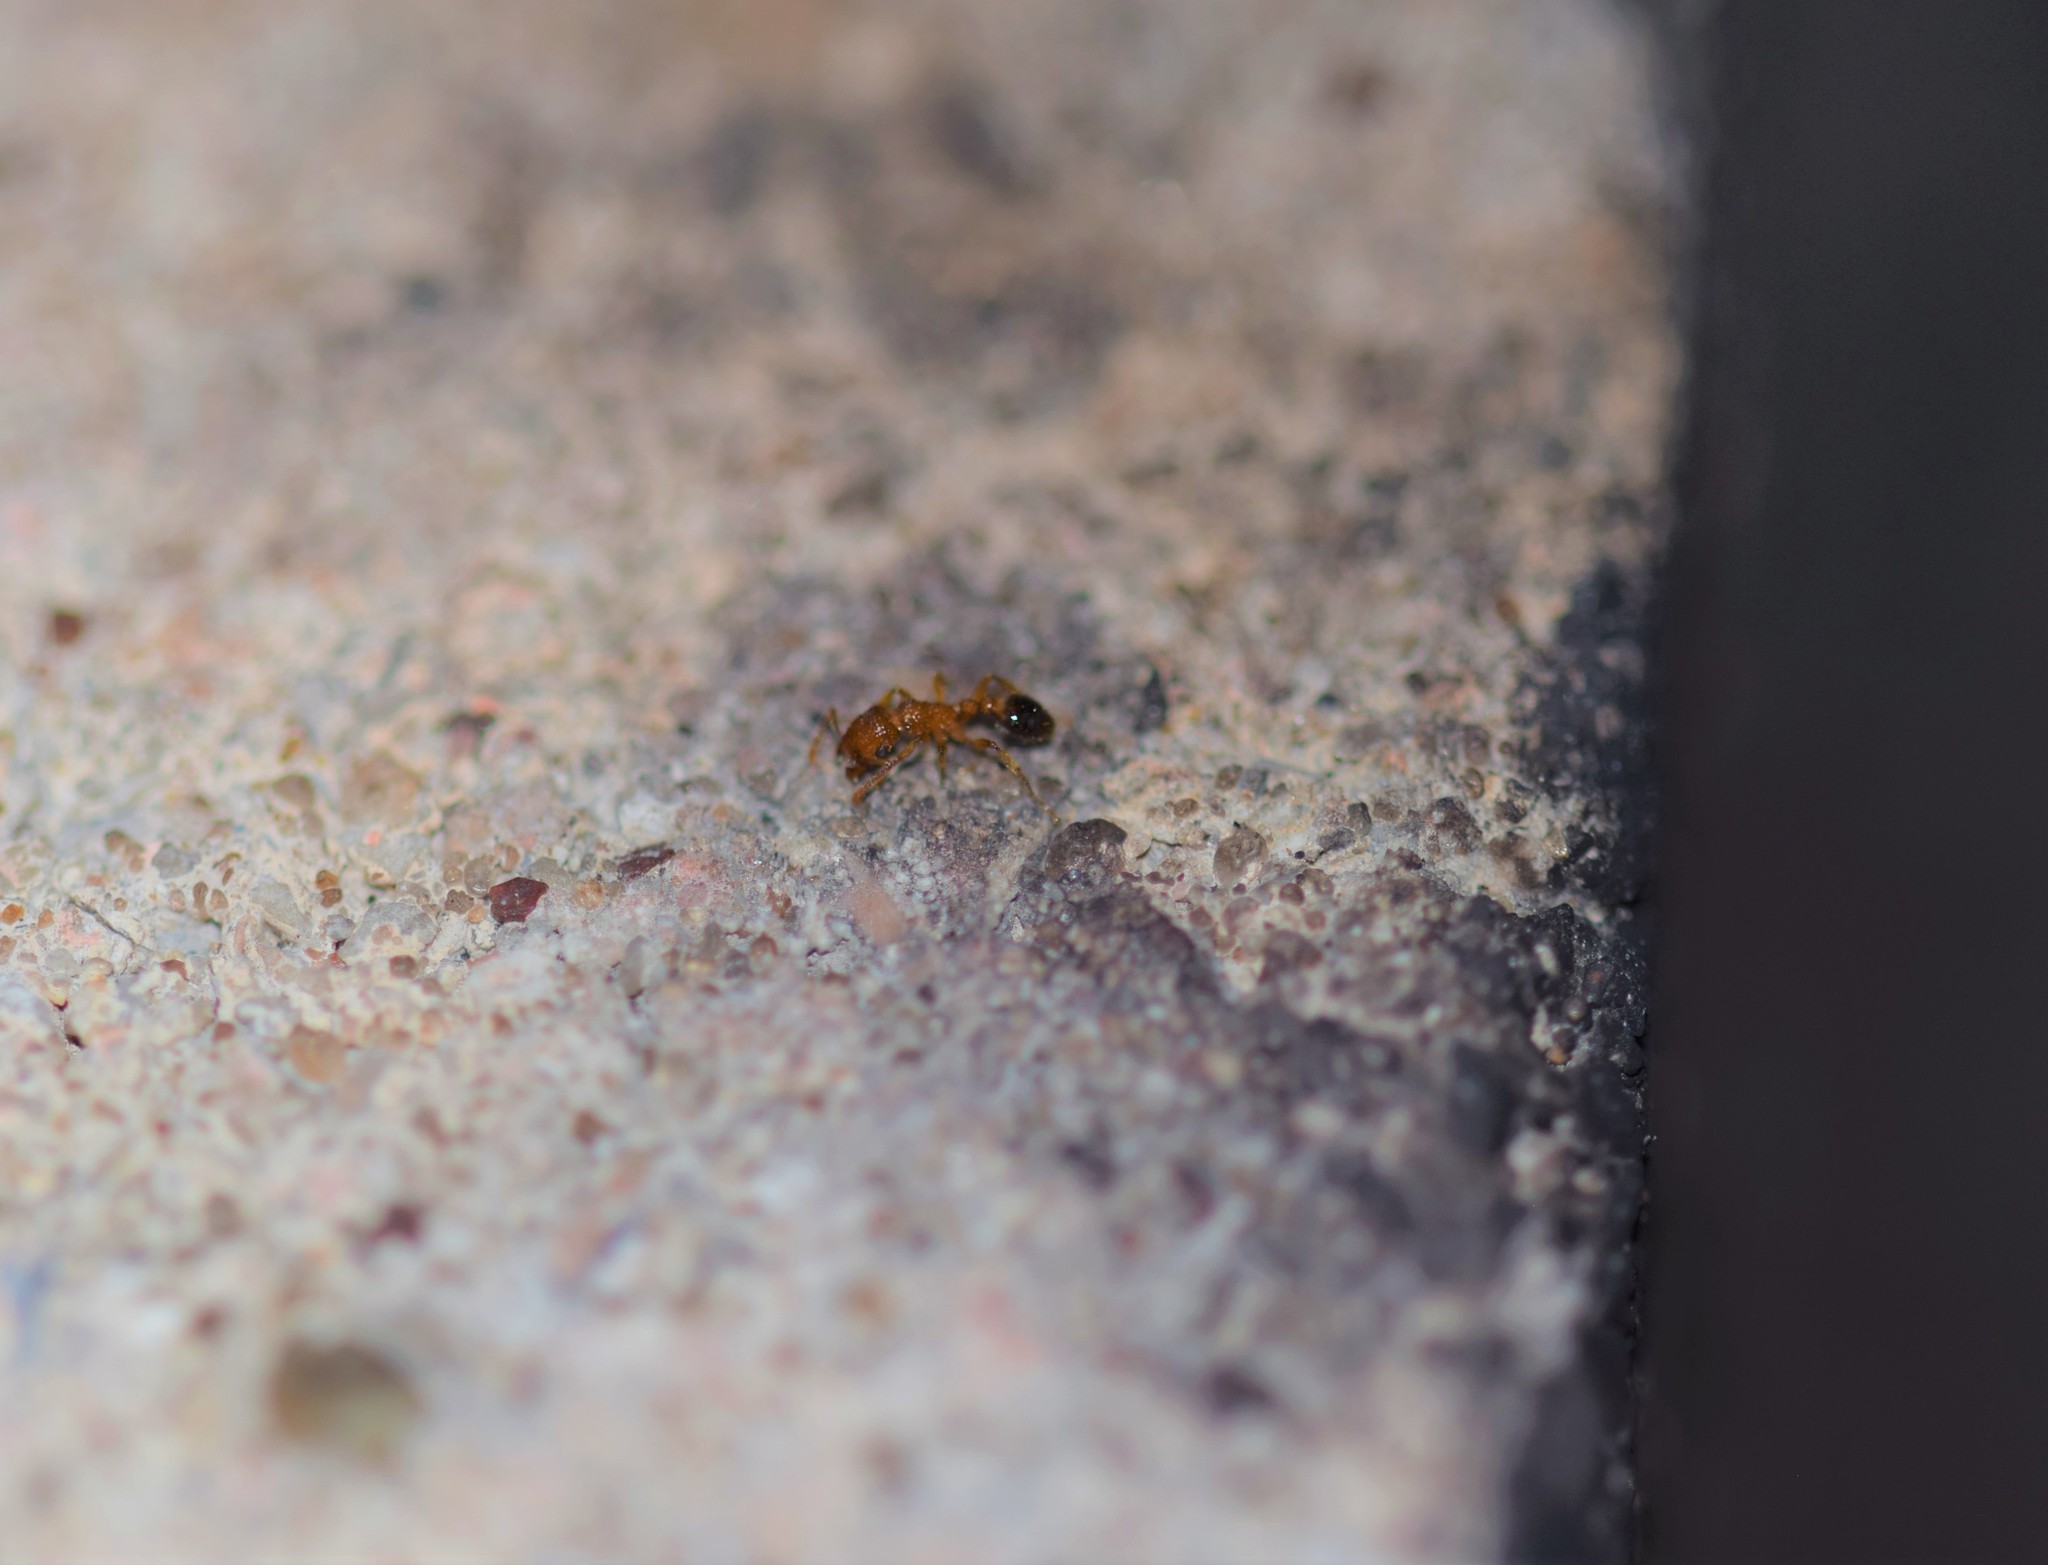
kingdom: Animalia
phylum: Arthropoda
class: Insecta
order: Hymenoptera
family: Formicidae
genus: Tetramorium
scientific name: Tetramorium bicarinatum
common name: Guinea ant
